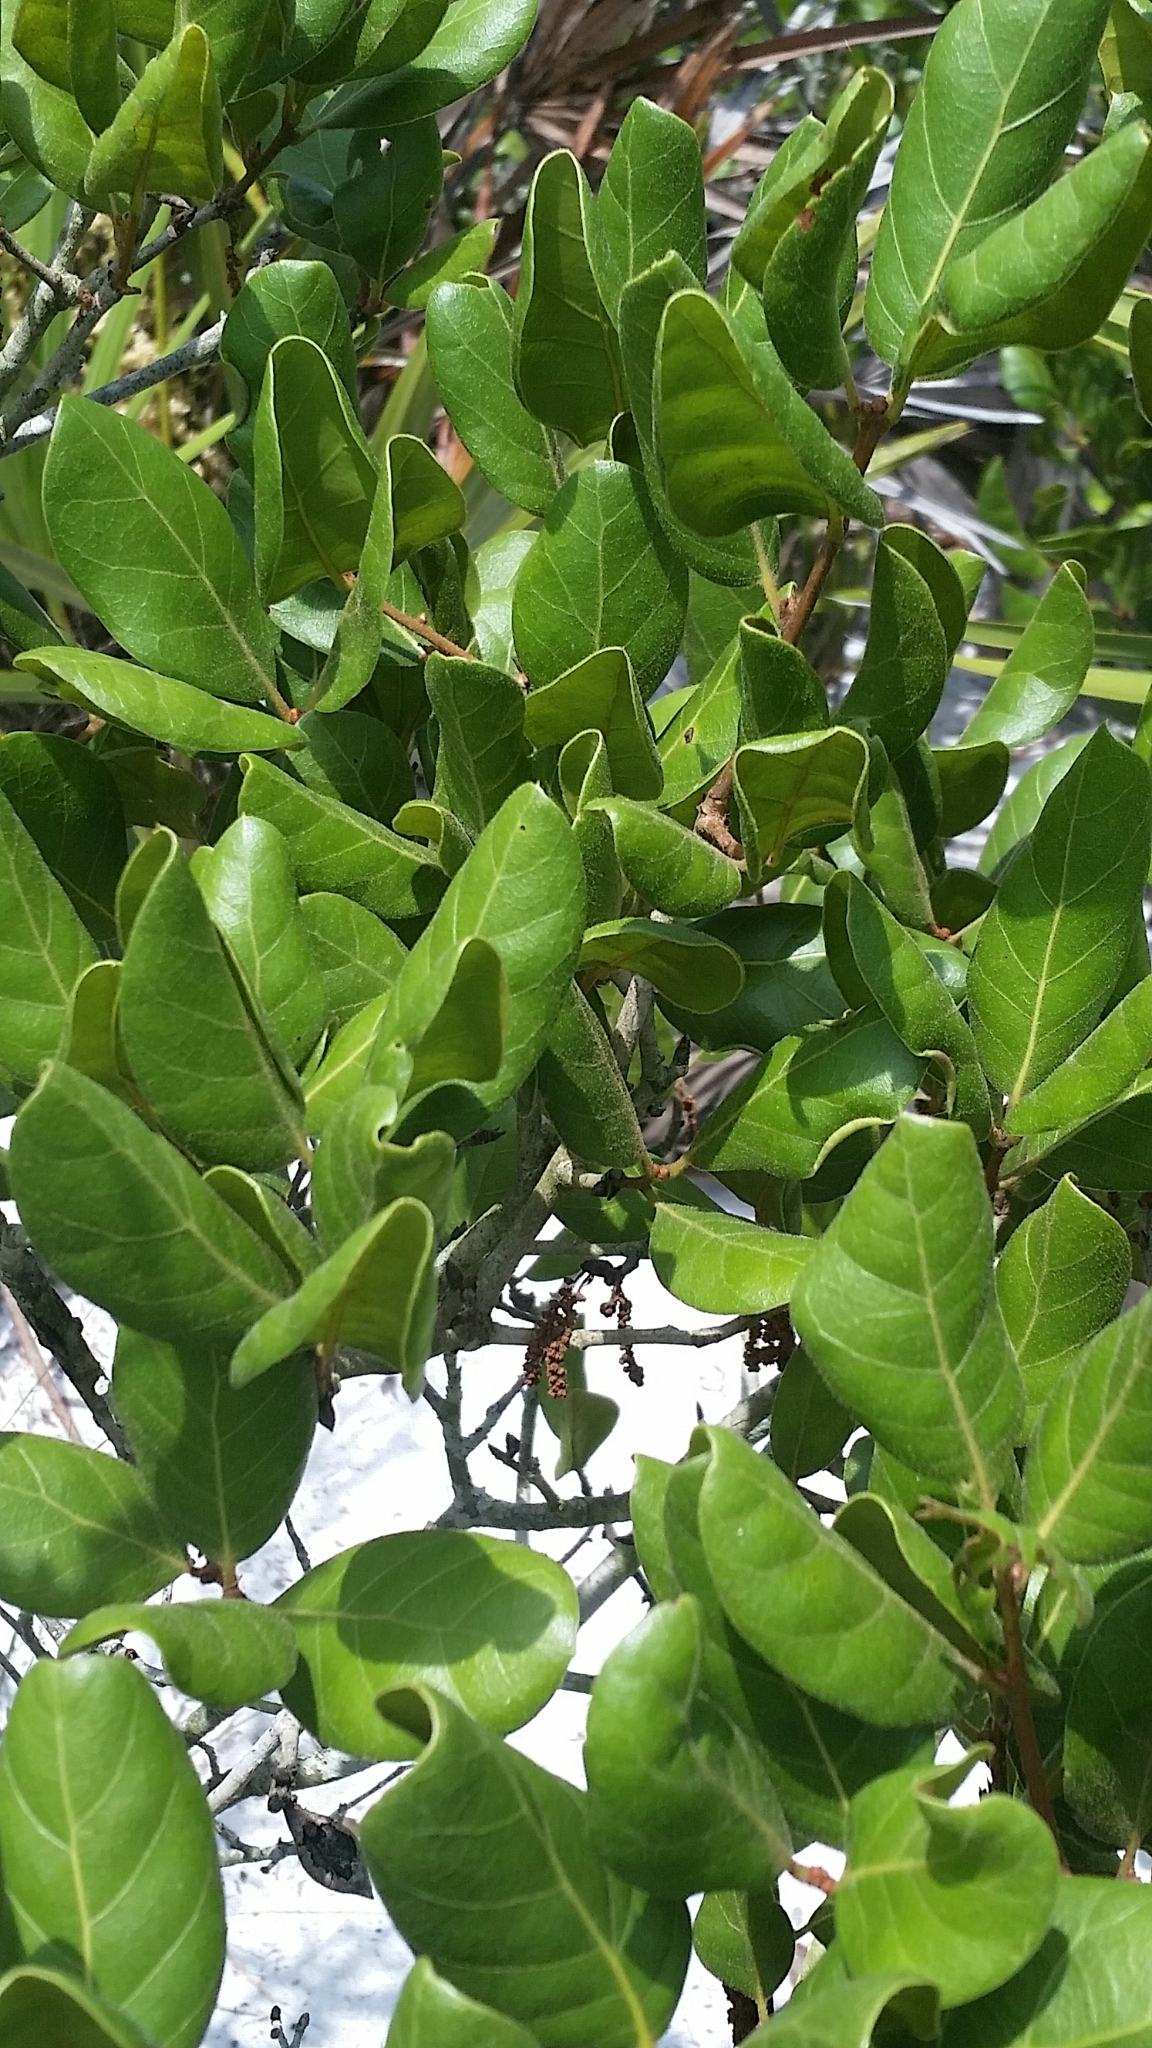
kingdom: Plantae
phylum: Tracheophyta
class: Magnoliopsida
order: Fagales
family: Fagaceae
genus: Quercus
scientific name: Quercus inopina
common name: Sandhill oak
